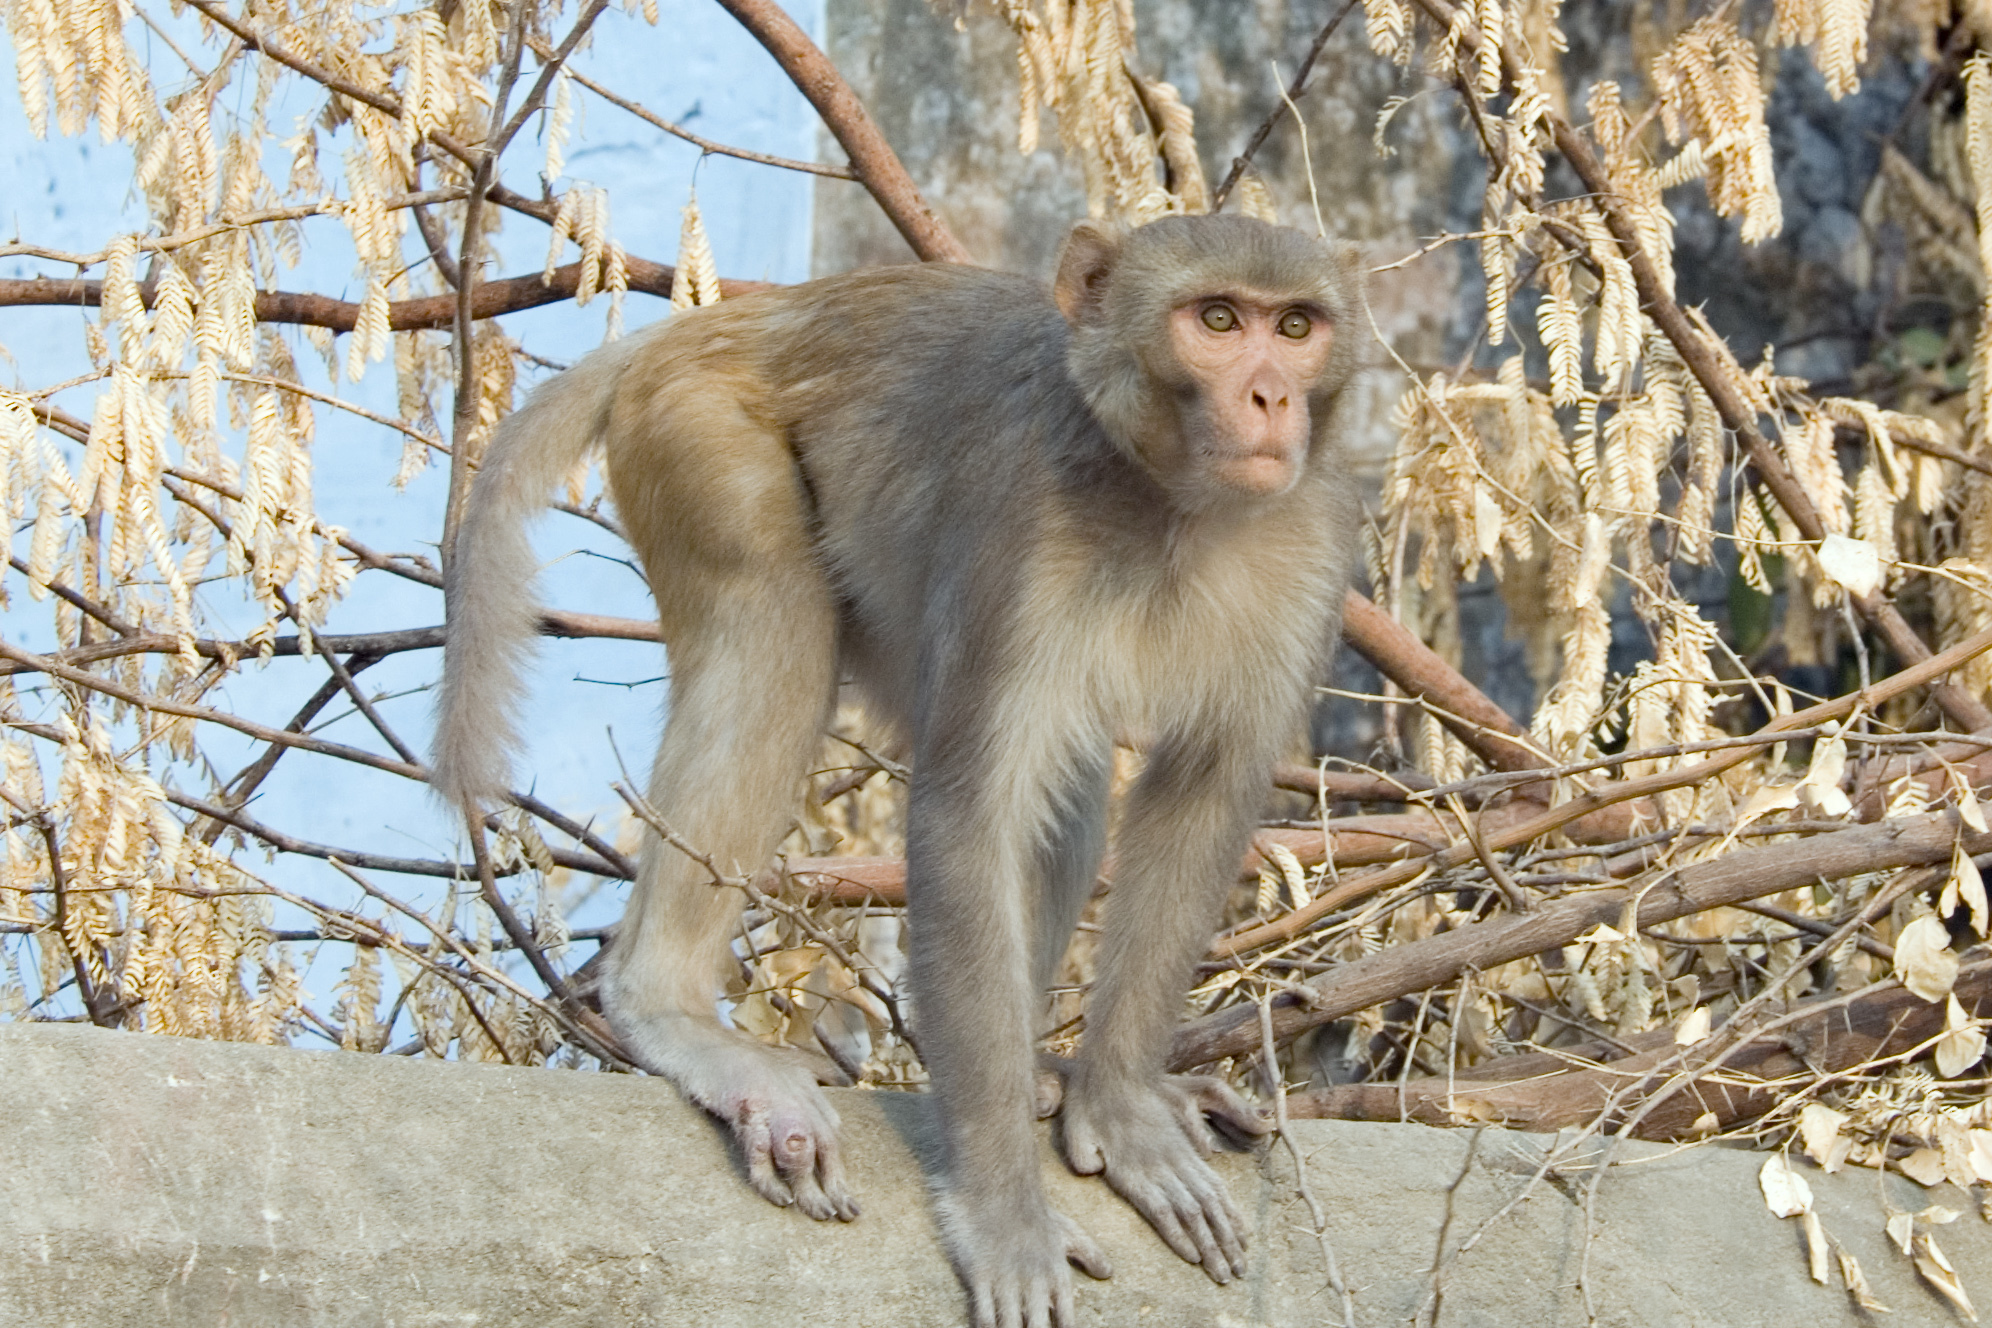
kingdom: Animalia
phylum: Chordata
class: Mammalia
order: Primates
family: Cercopithecidae
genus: Macaca
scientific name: Macaca mulatta
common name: Rhesus monkey
